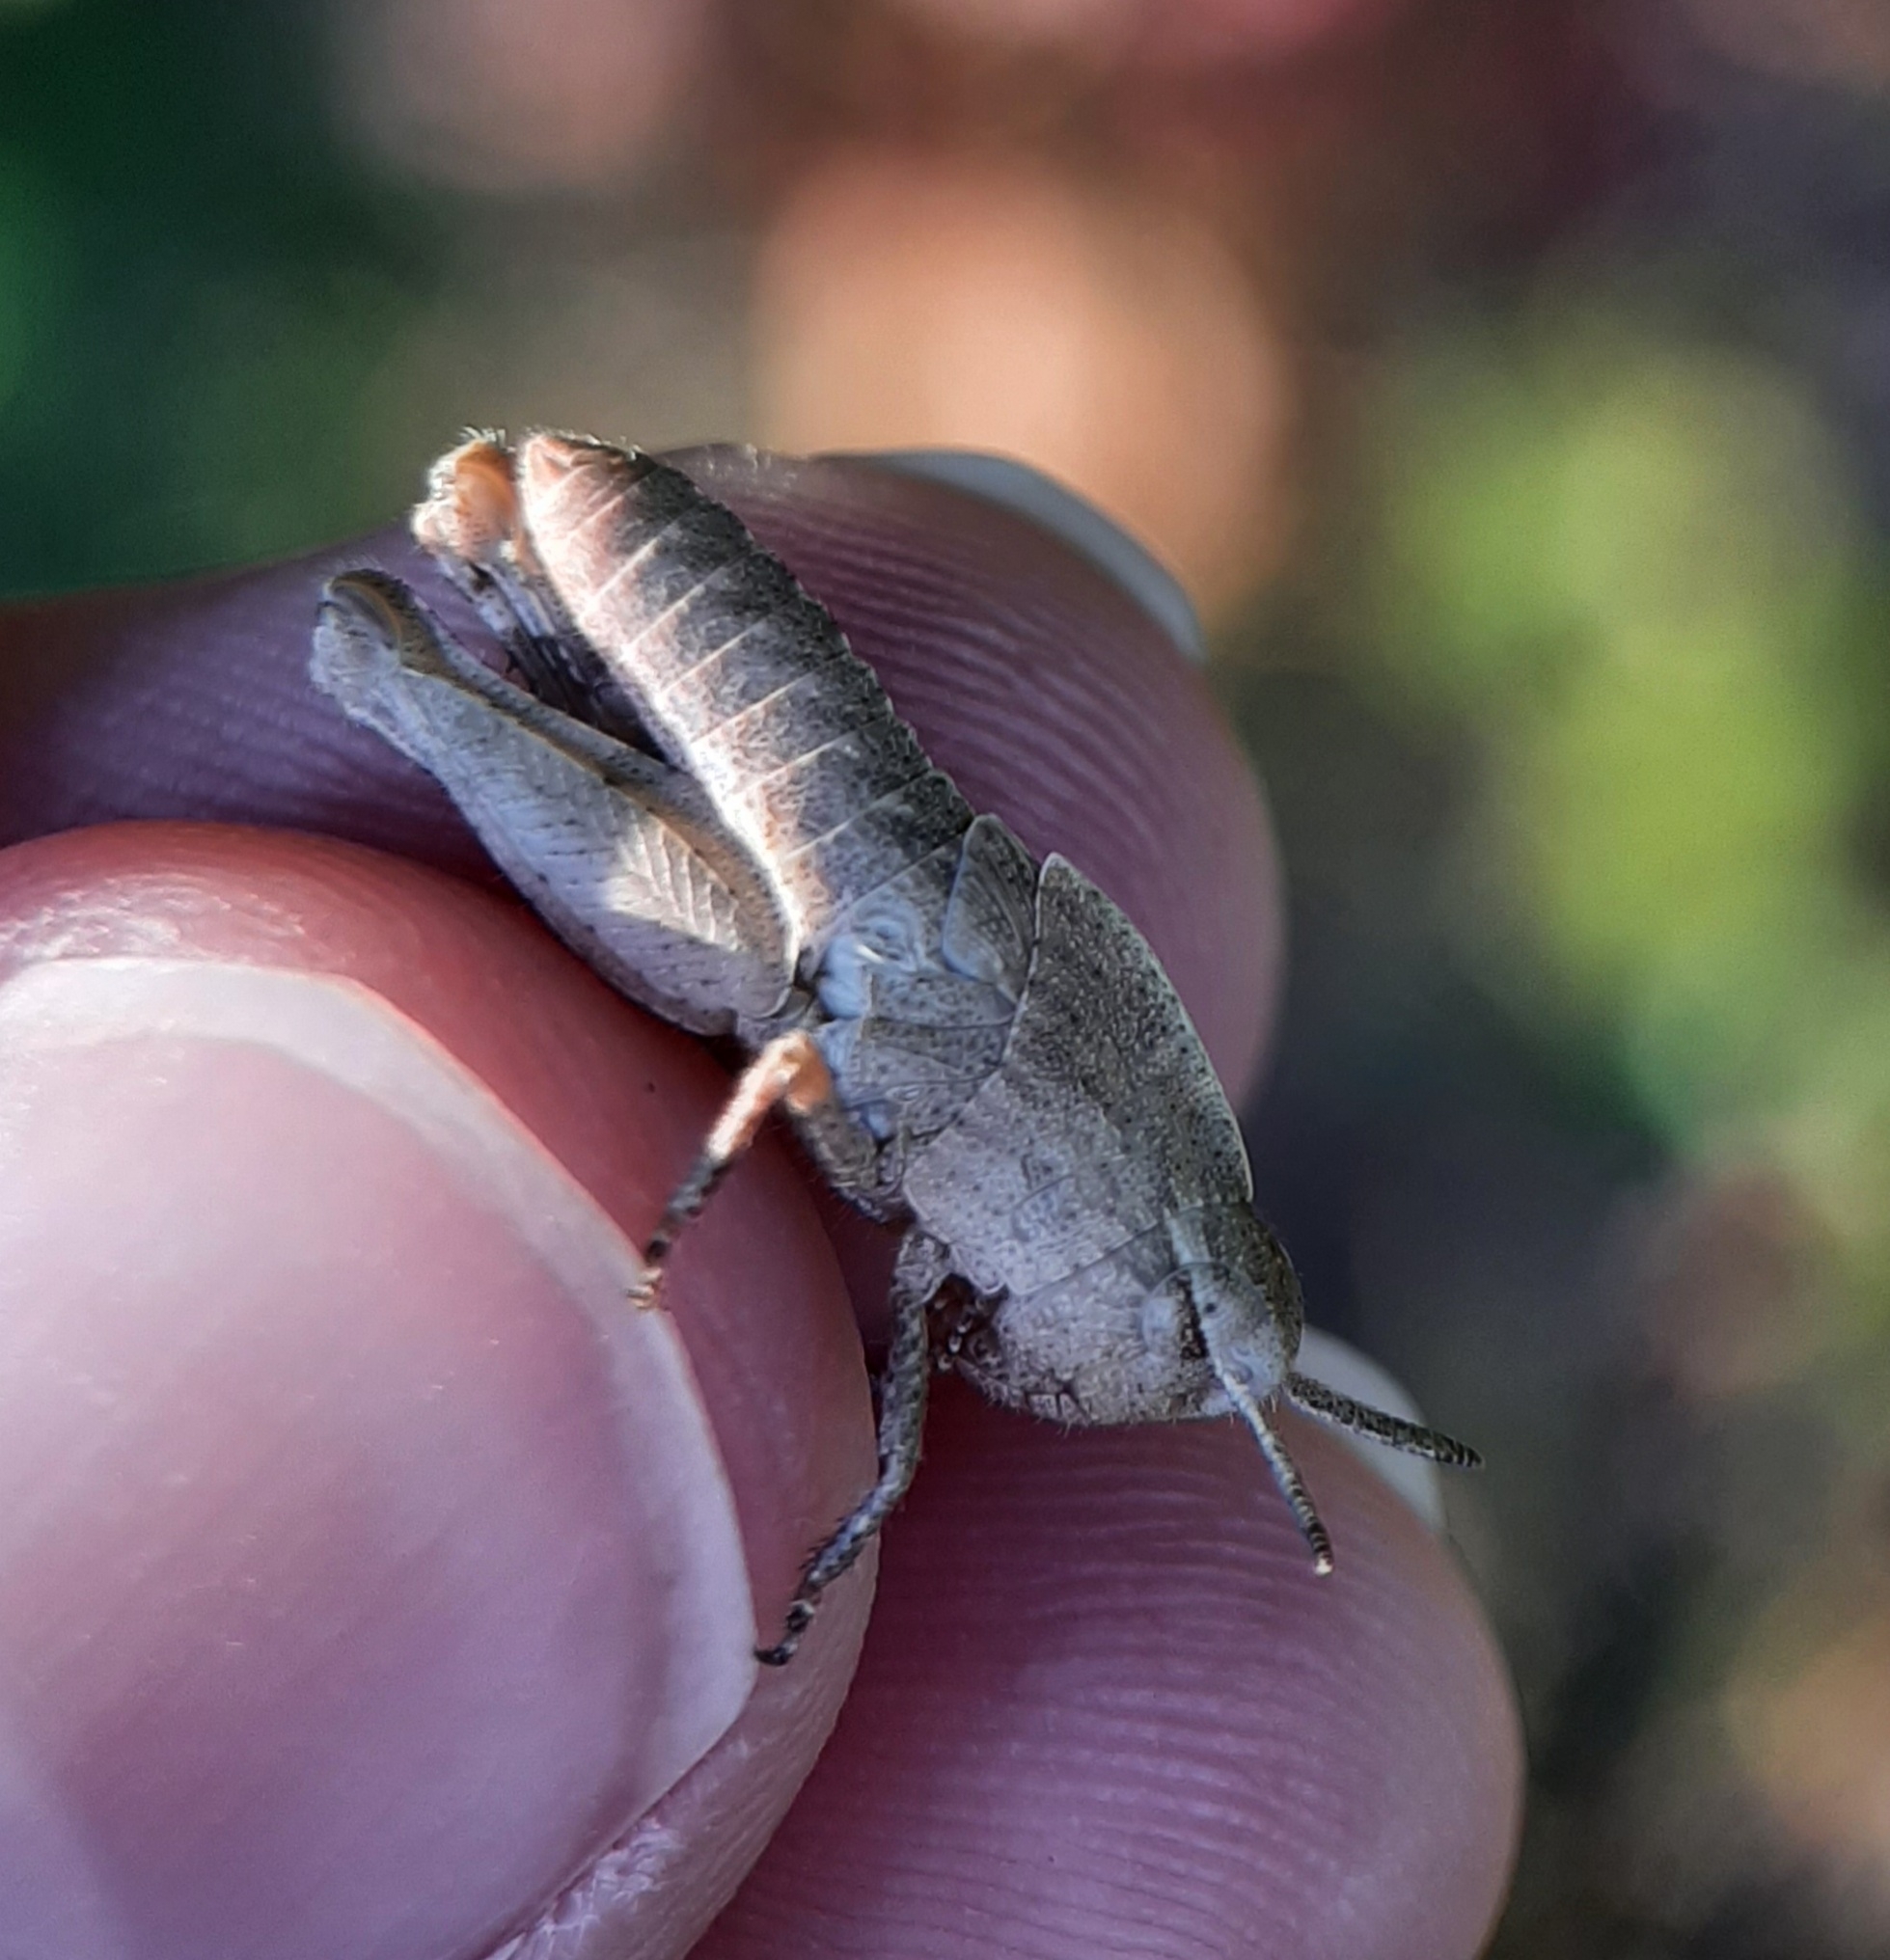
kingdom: Animalia
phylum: Arthropoda
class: Insecta
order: Orthoptera
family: Acrididae
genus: Chortophaga
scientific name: Chortophaga viridifasciata
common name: Green-striped grasshopper
